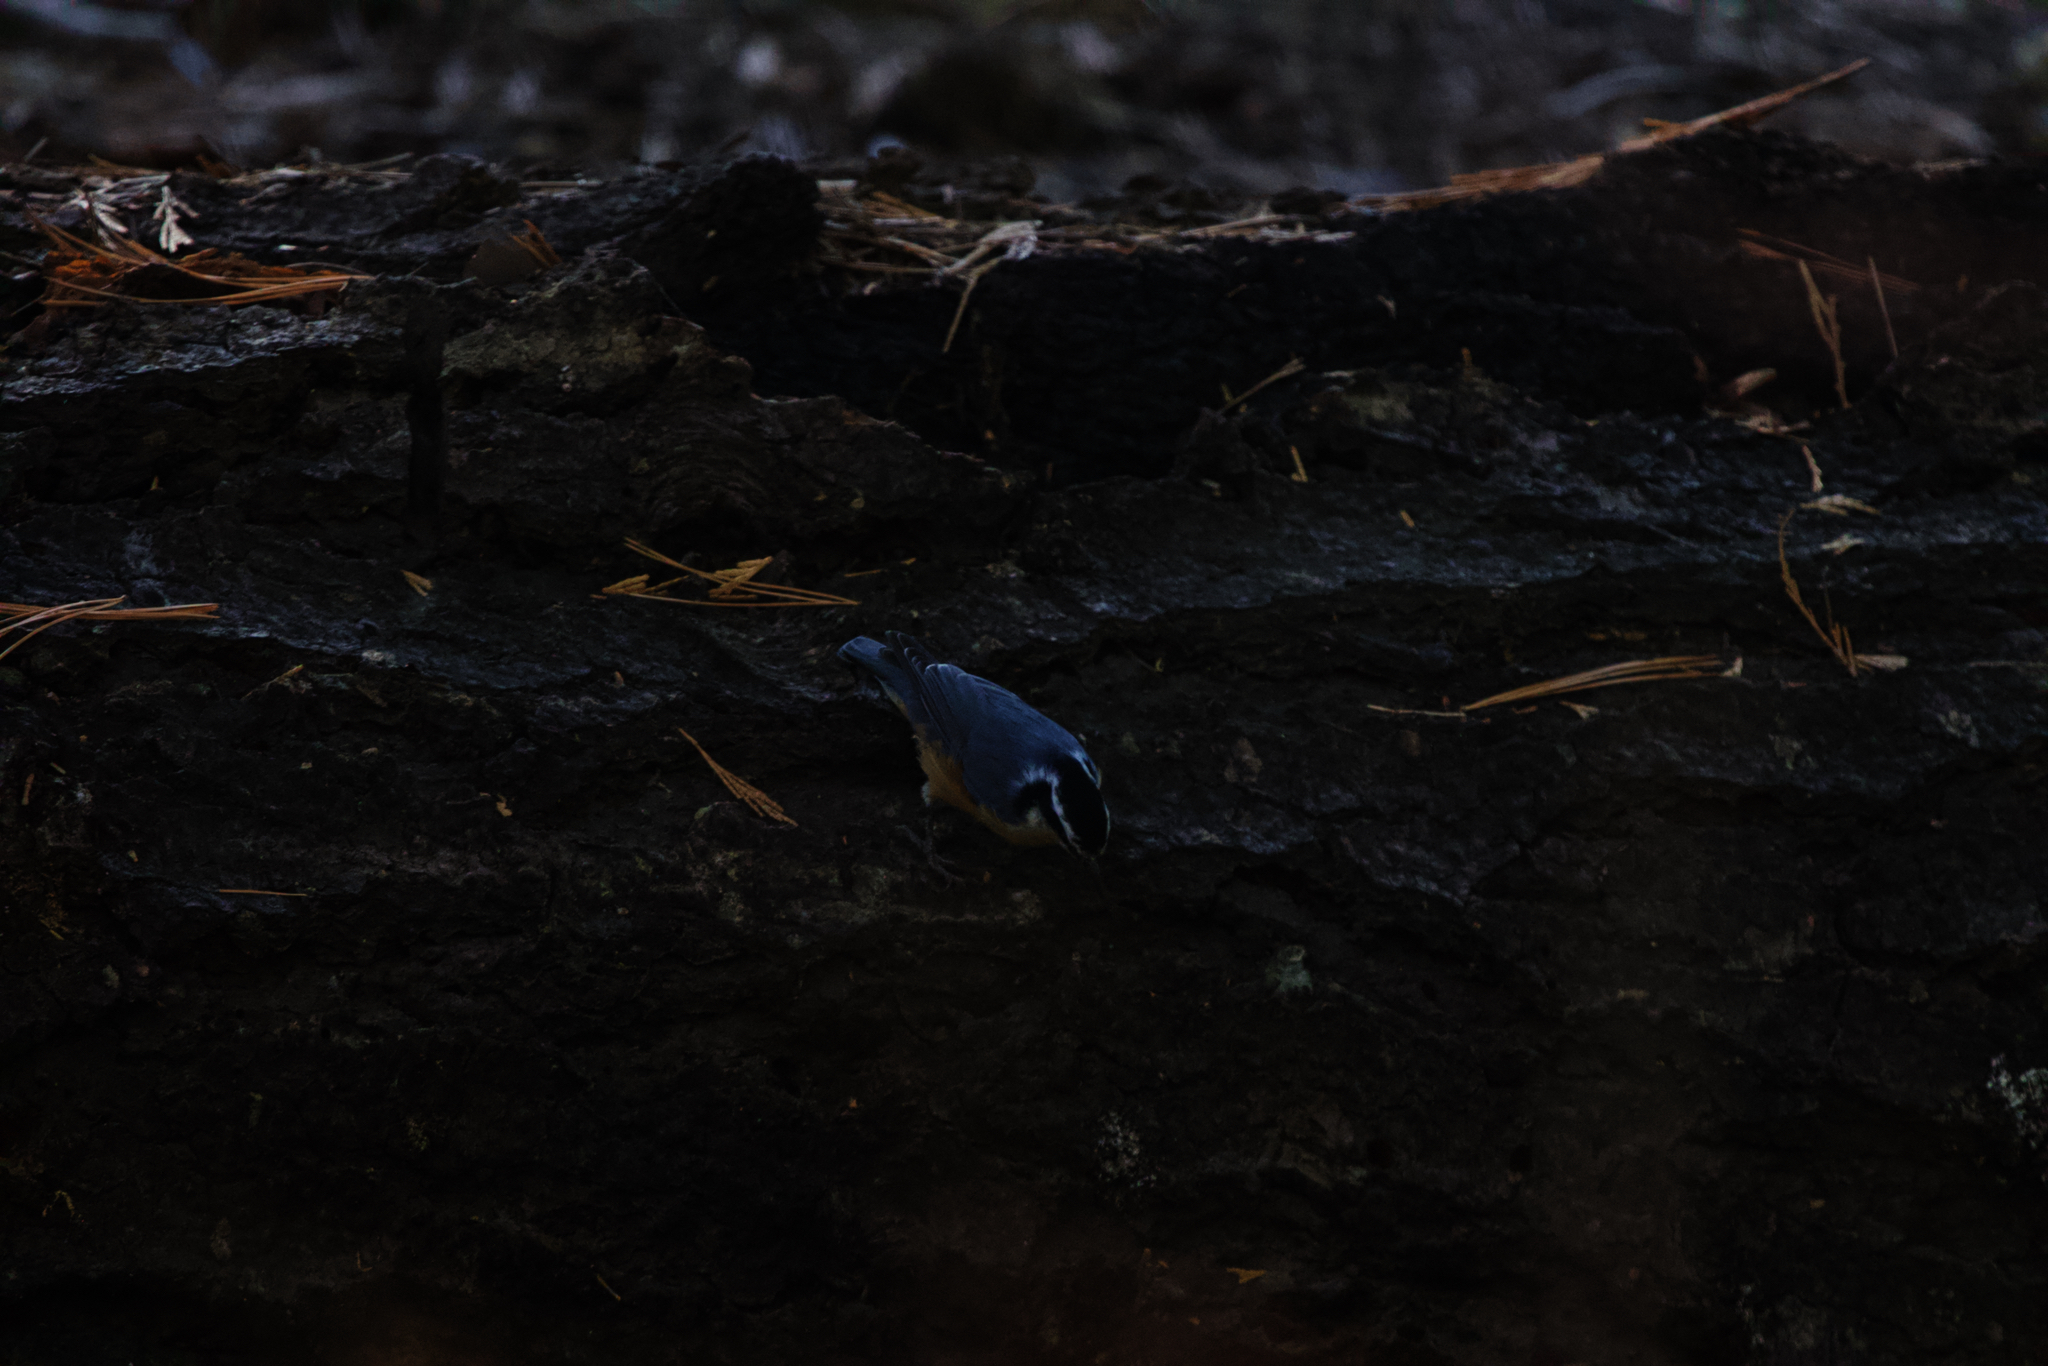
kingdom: Animalia
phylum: Chordata
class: Aves
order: Passeriformes
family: Sittidae
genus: Sitta
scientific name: Sitta canadensis
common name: Red-breasted nuthatch
